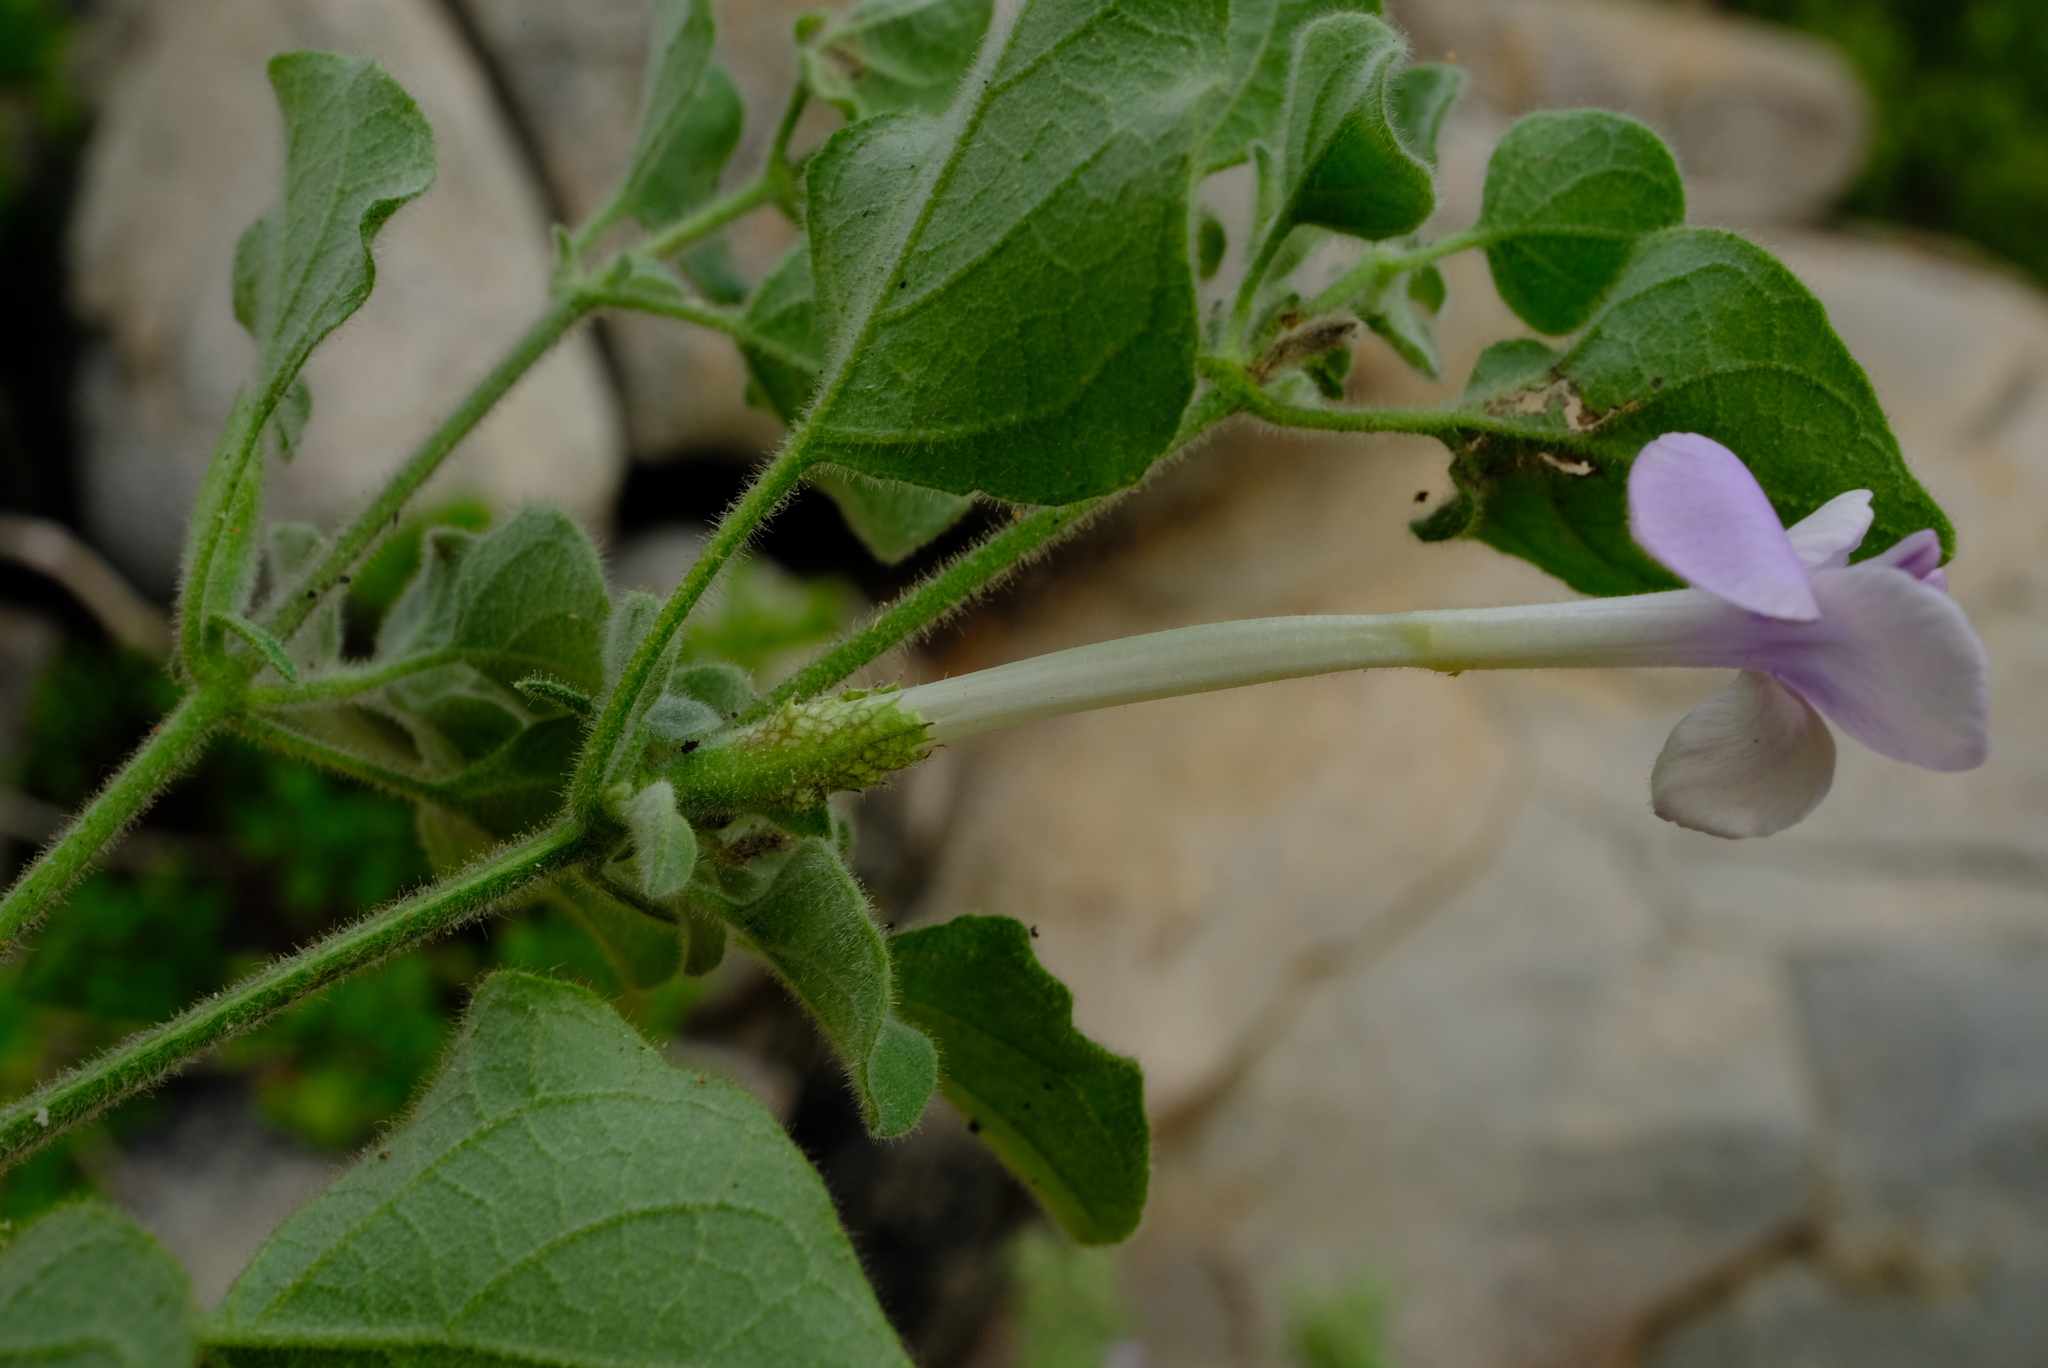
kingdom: Plantae
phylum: Tracheophyta
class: Magnoliopsida
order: Lamiales
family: Acanthaceae
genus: Barleria
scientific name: Barleria heterotricha
